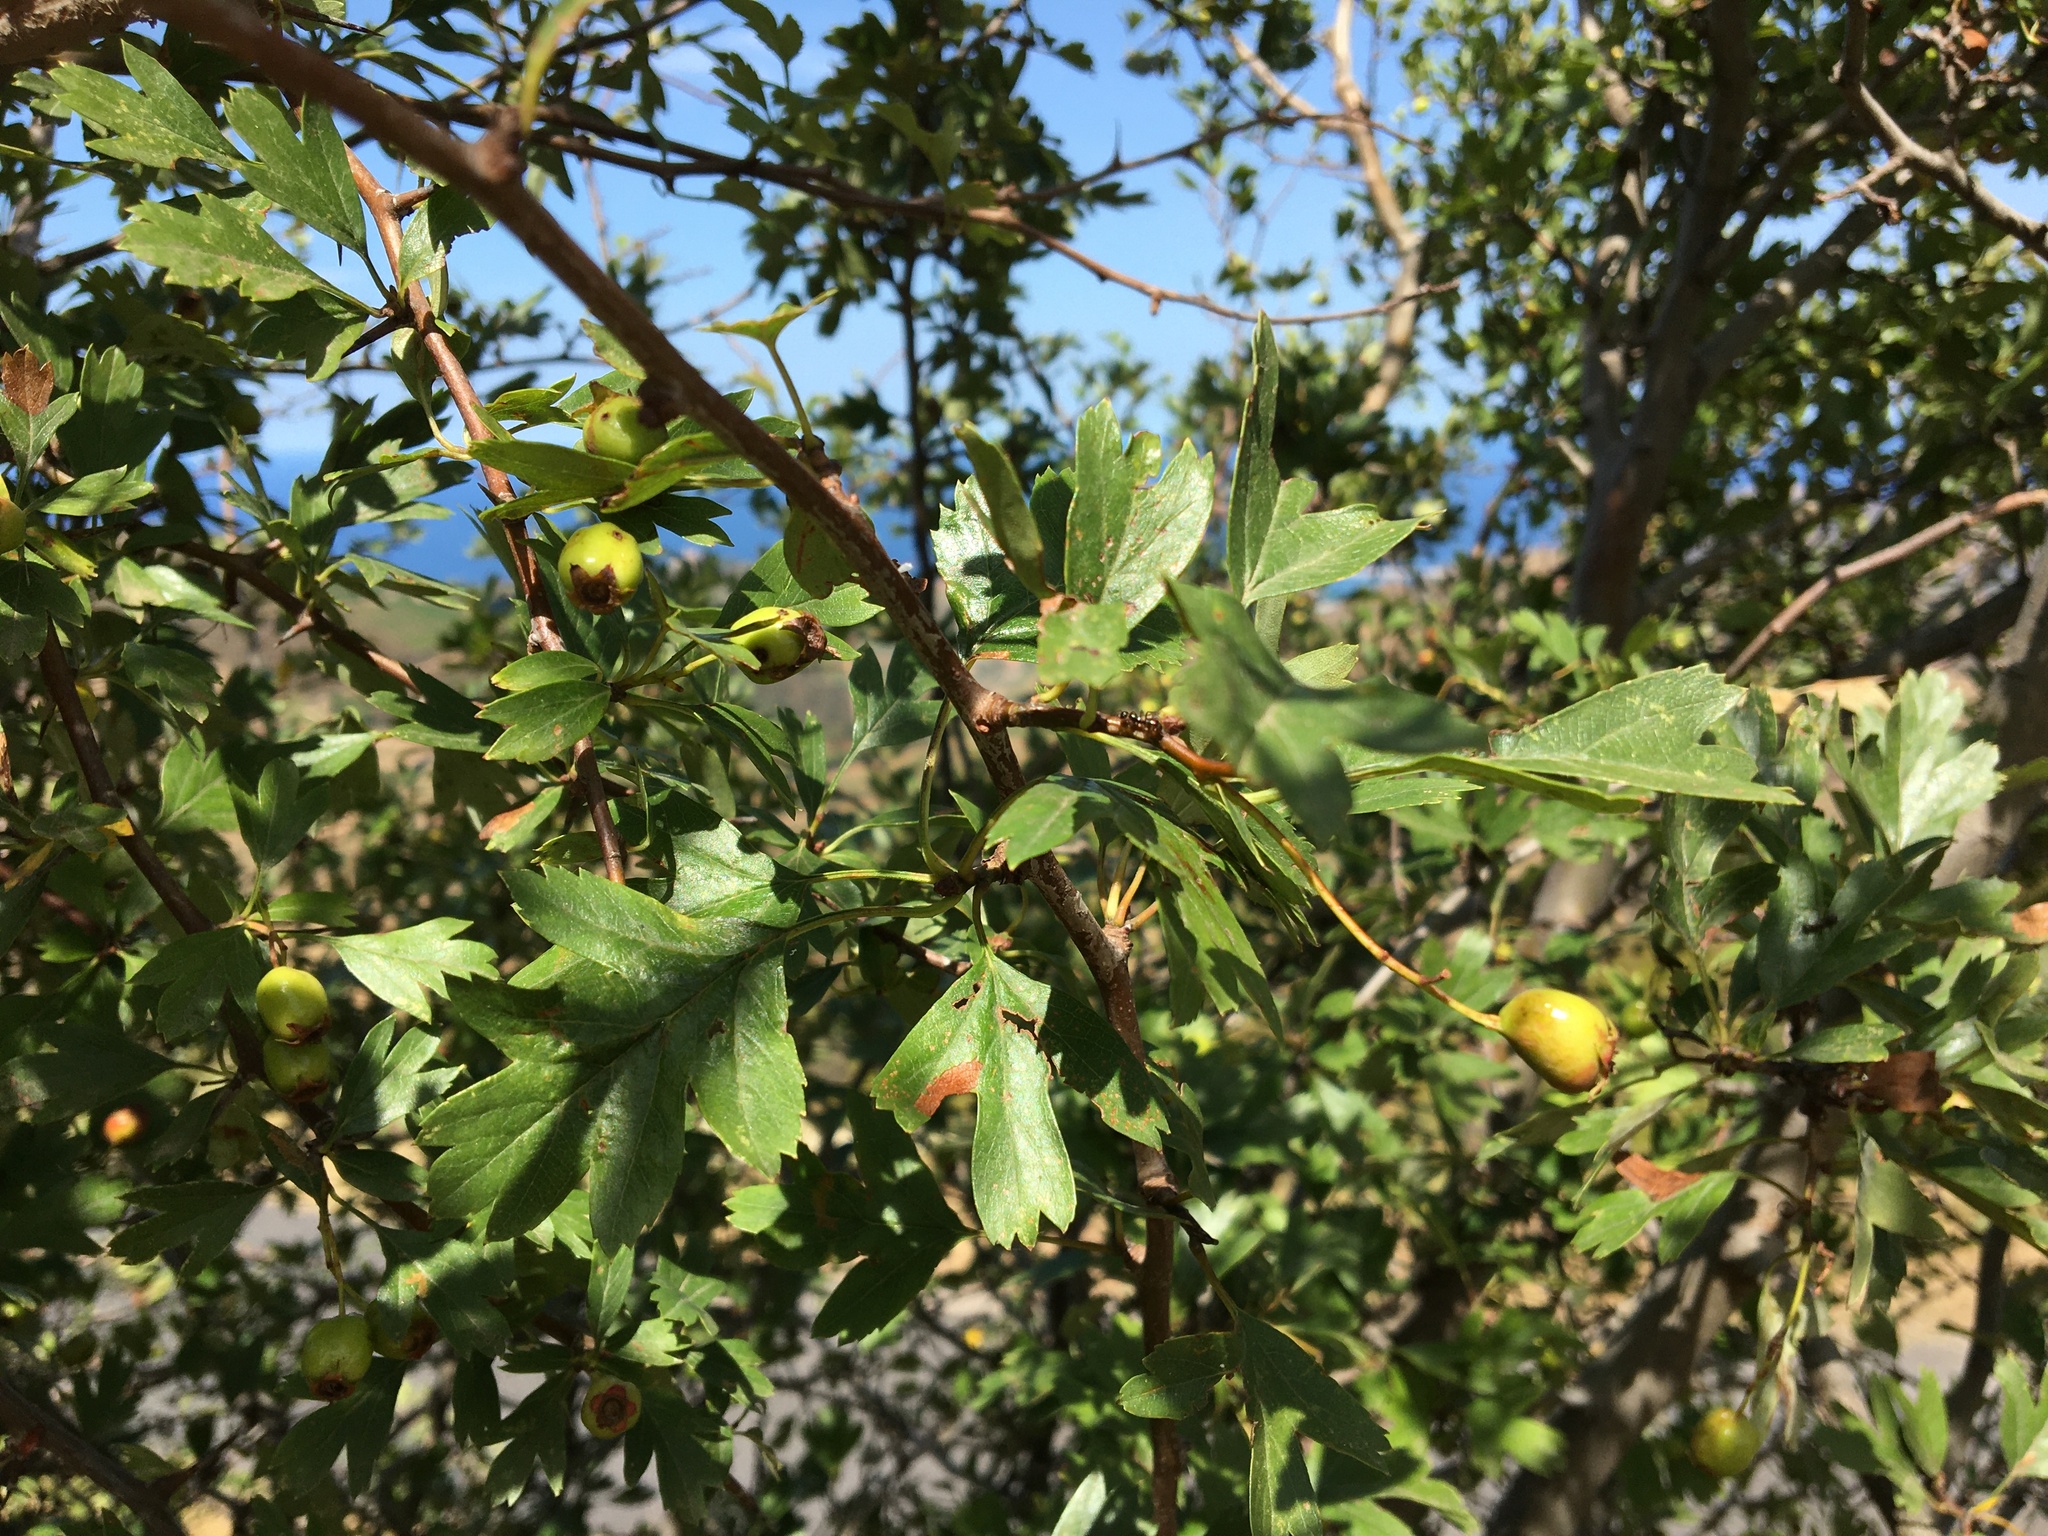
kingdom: Plantae
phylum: Tracheophyta
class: Magnoliopsida
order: Rosales
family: Rosaceae
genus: Crataegus
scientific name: Crataegus monogyna
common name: Hawthorn
